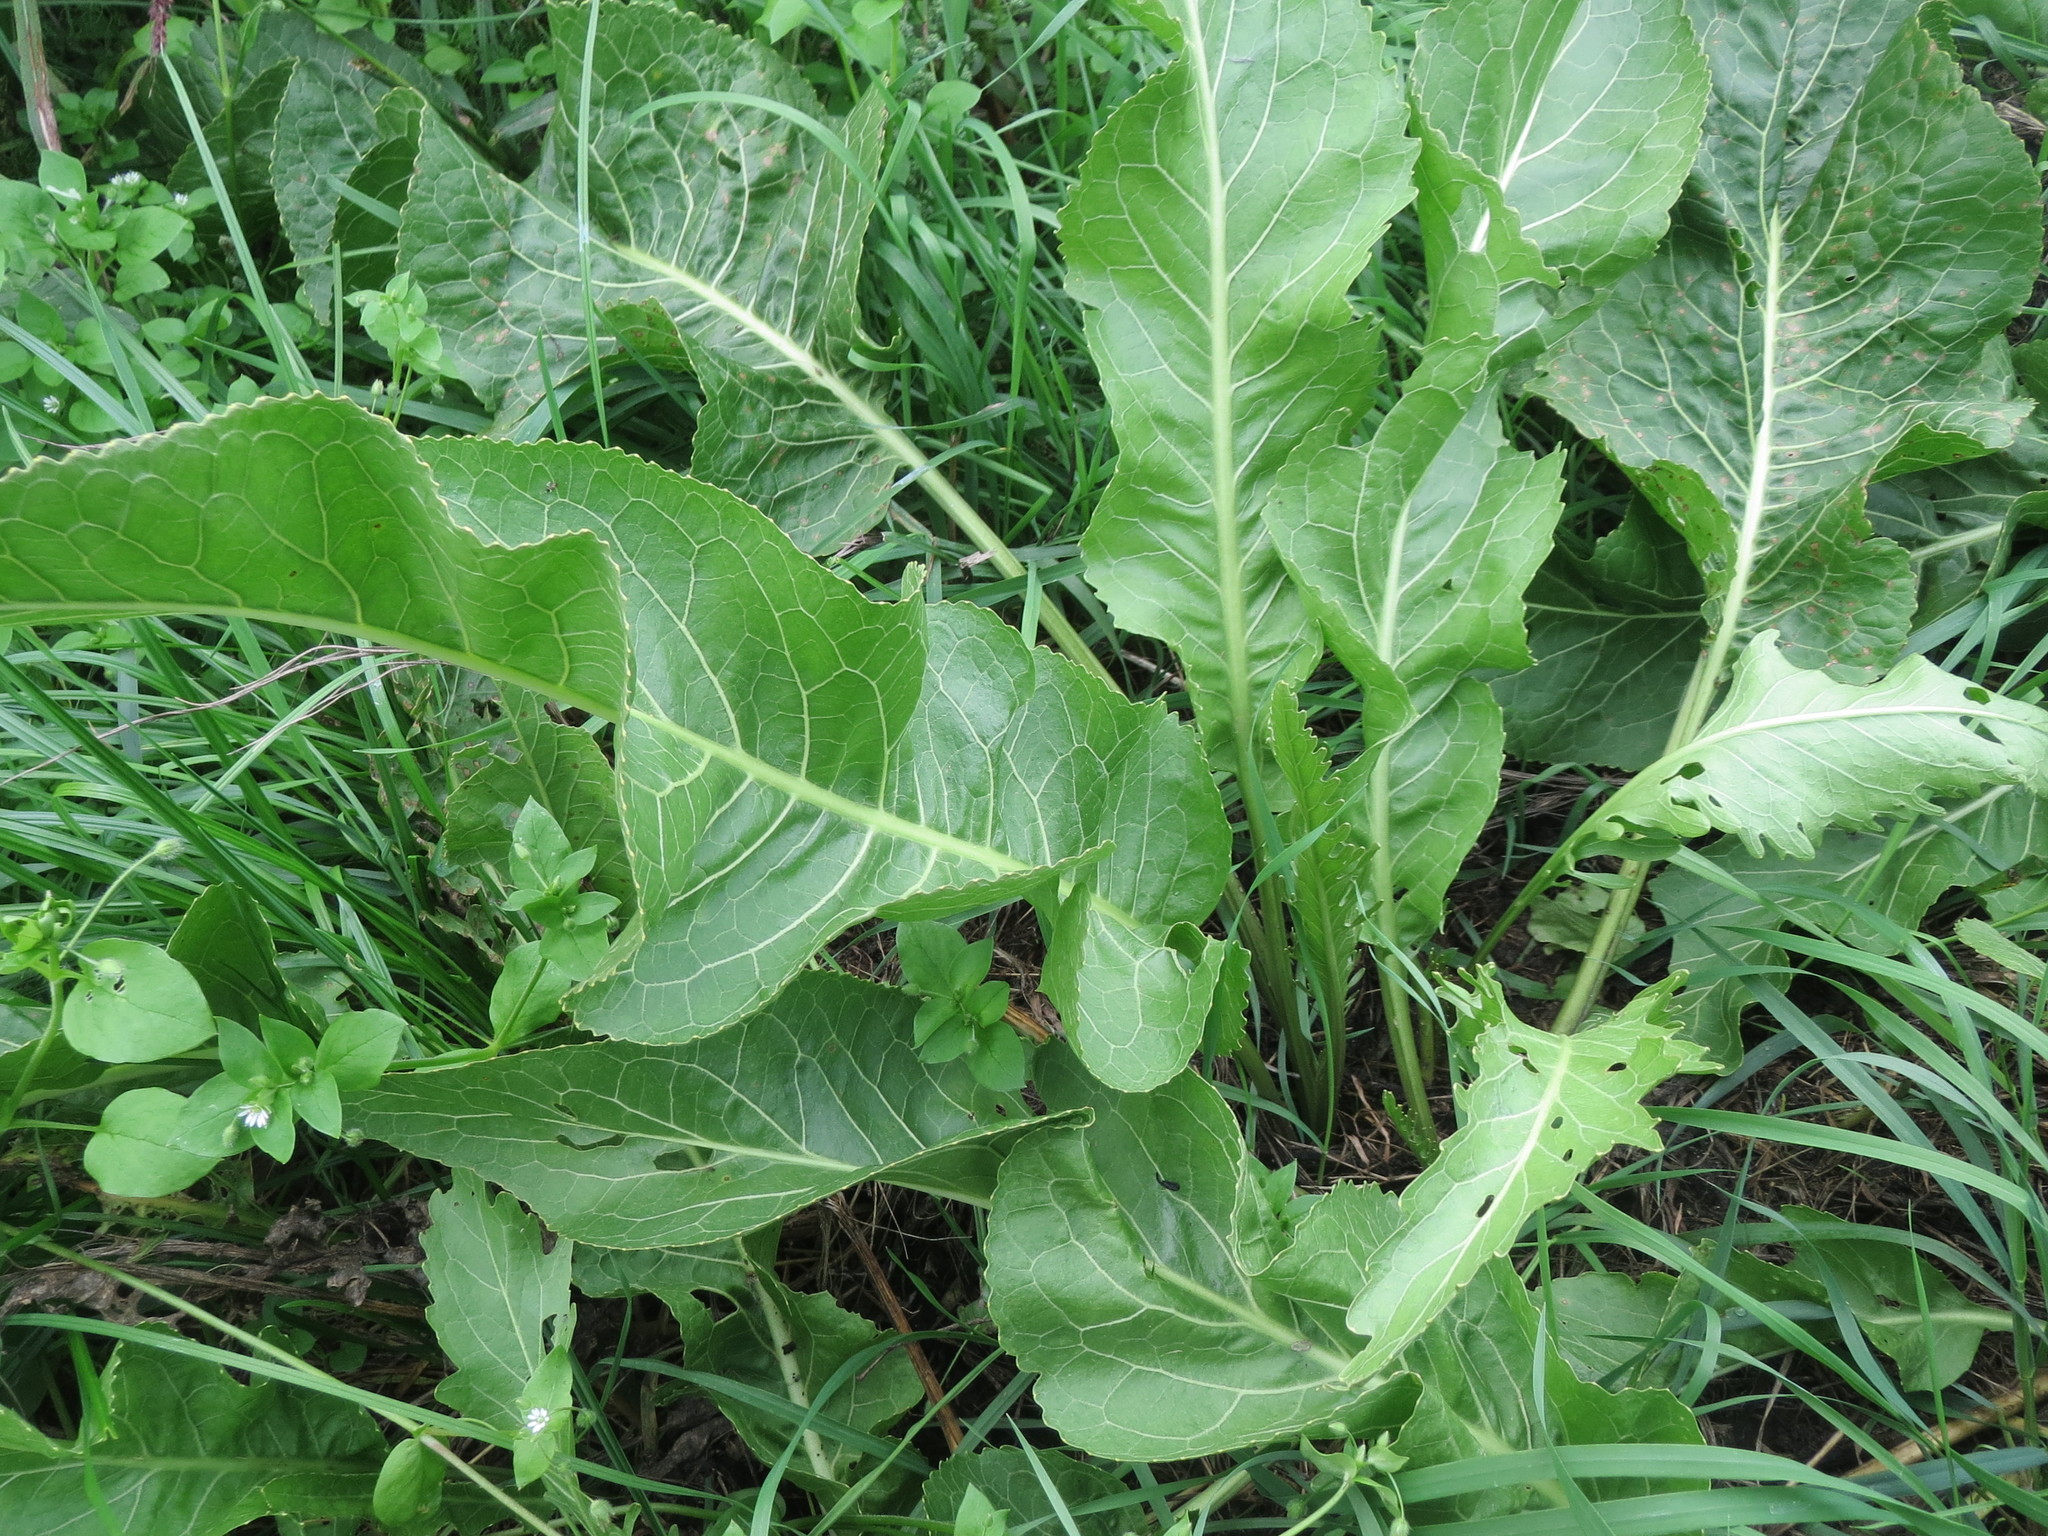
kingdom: Plantae
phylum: Tracheophyta
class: Magnoliopsida
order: Brassicales
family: Brassicaceae
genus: Armoracia
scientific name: Armoracia rusticana
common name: Horseradish
